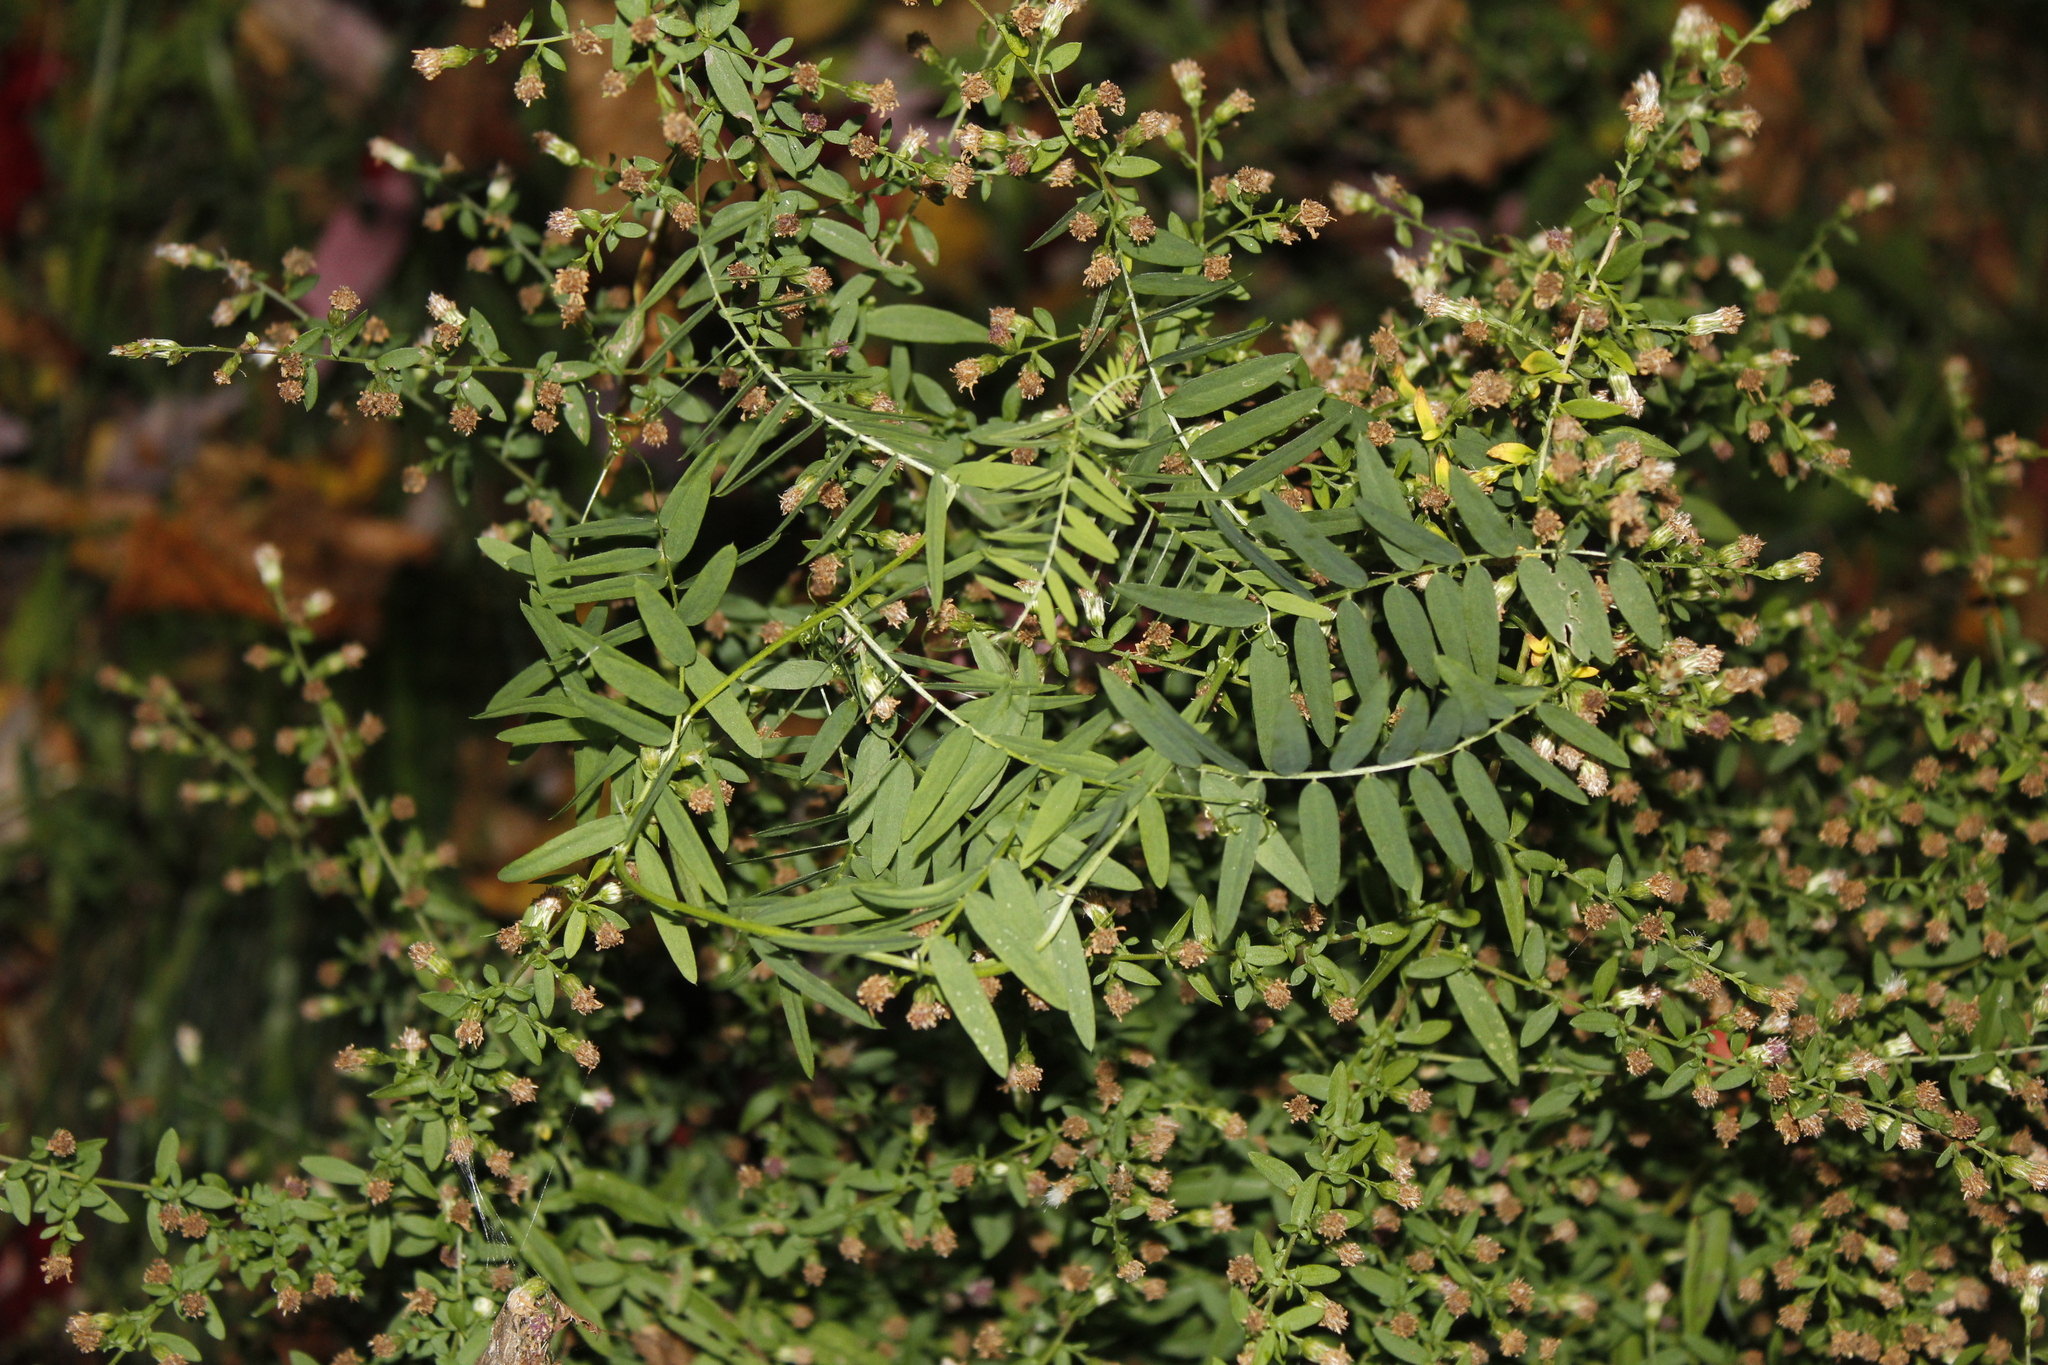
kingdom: Plantae
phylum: Tracheophyta
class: Magnoliopsida
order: Fabales
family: Fabaceae
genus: Vicia
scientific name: Vicia cracca
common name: Bird vetch
